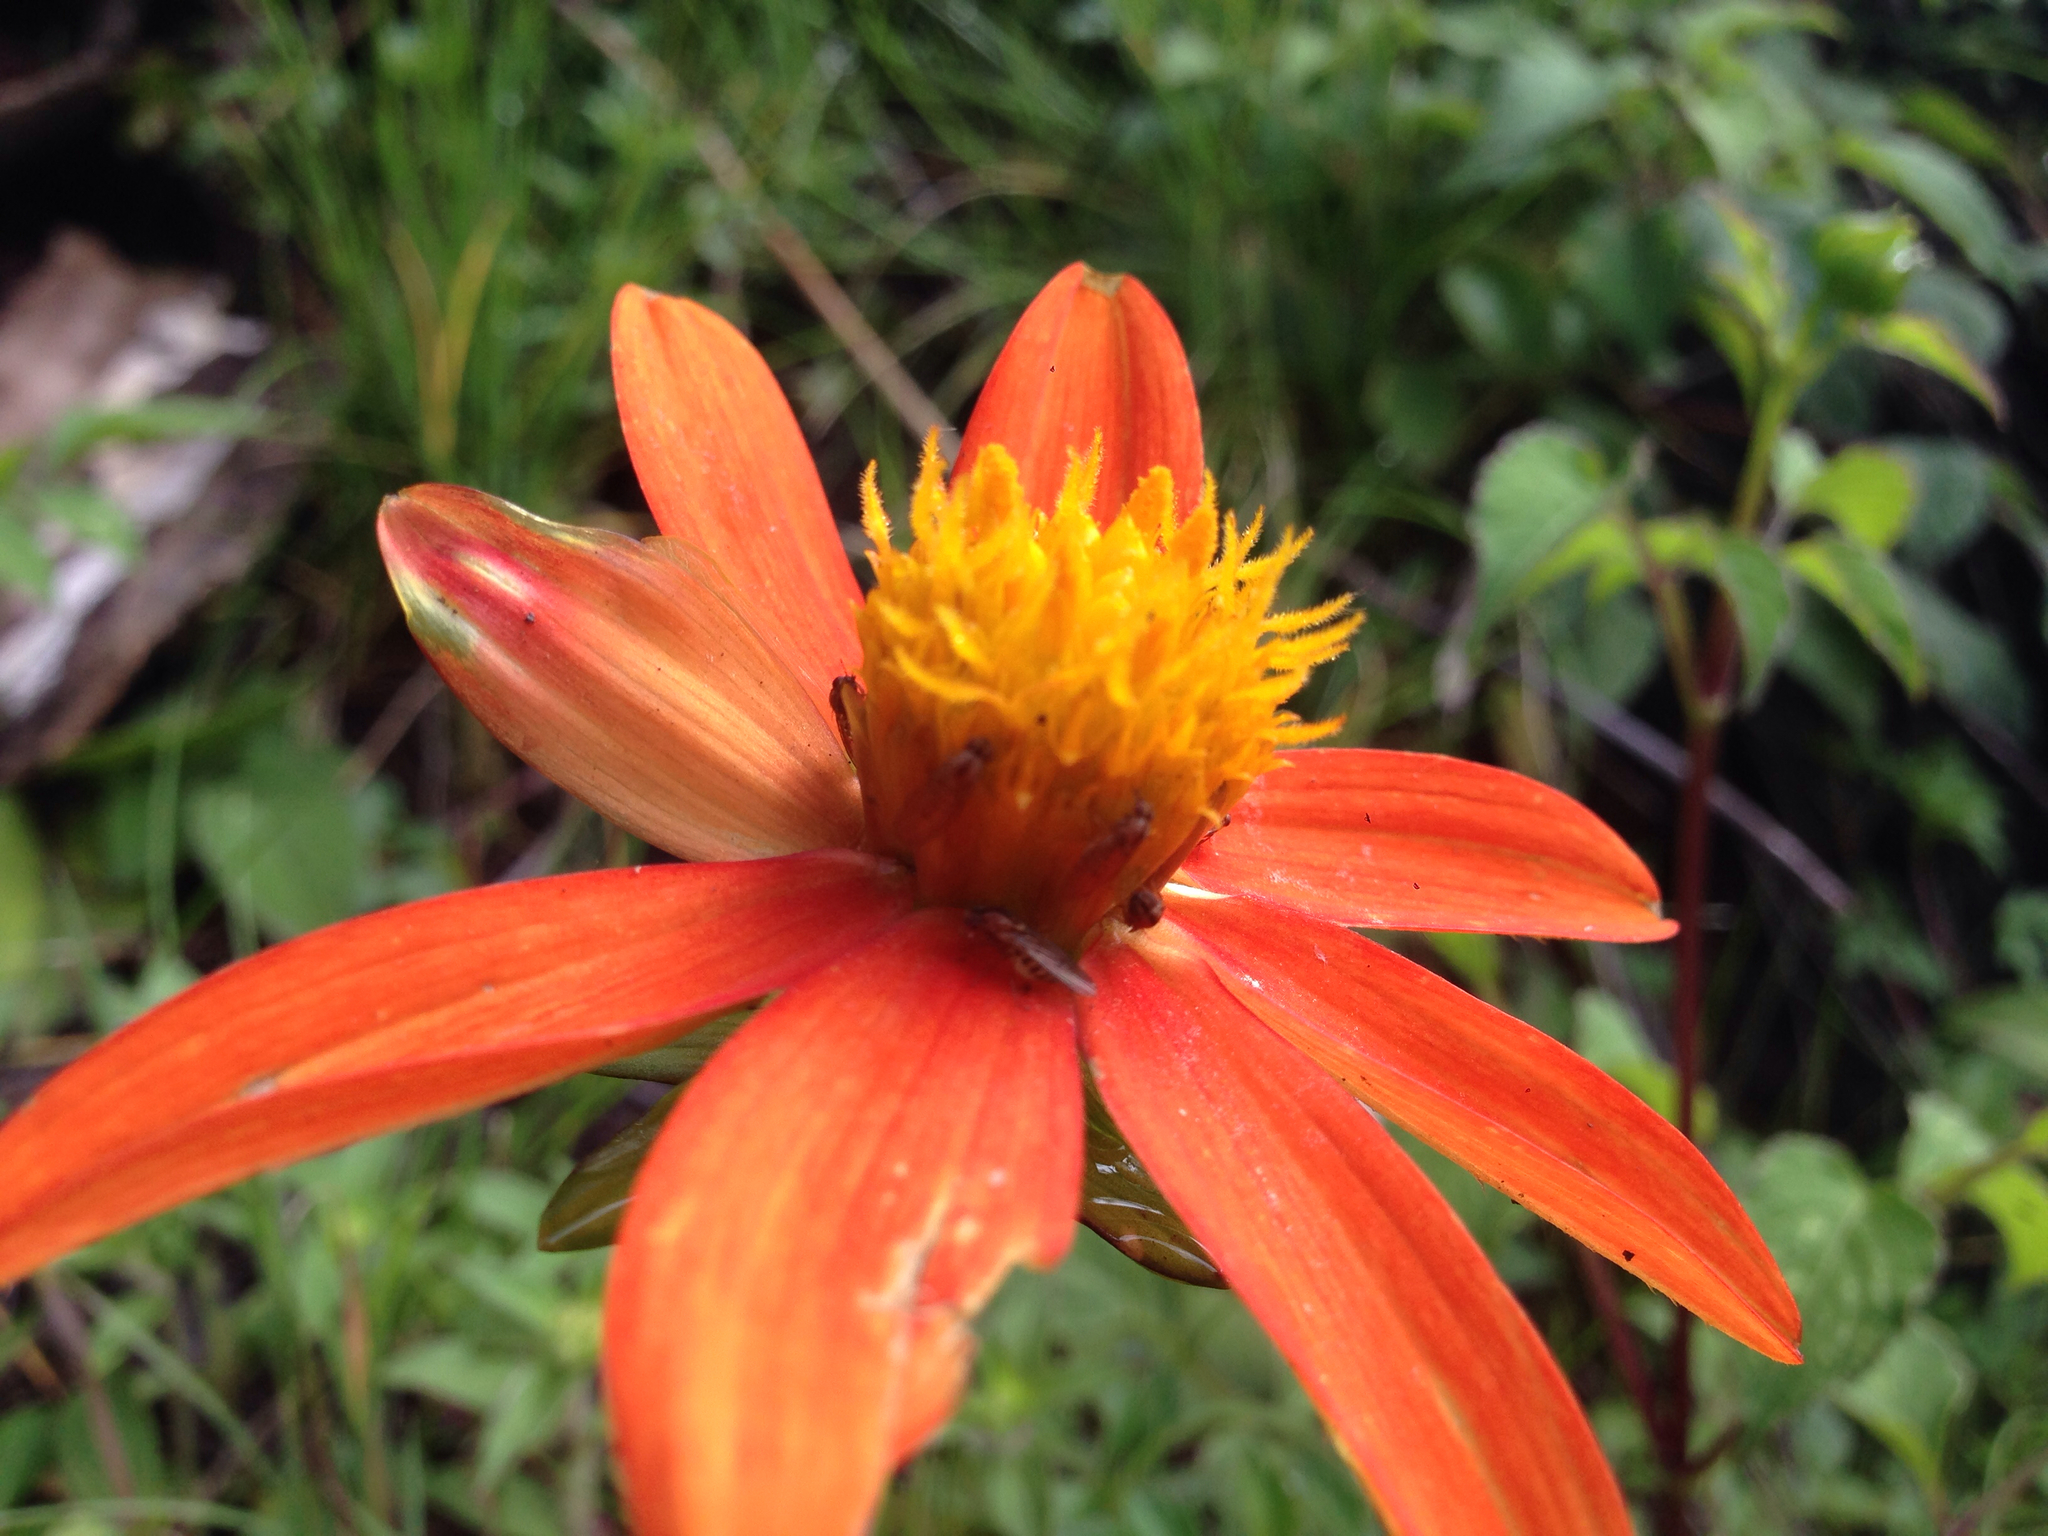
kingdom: Plantae
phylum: Tracheophyta
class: Magnoliopsida
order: Asterales
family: Asteraceae
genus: Dahlia
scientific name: Dahlia coccinea
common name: Red dahlia
